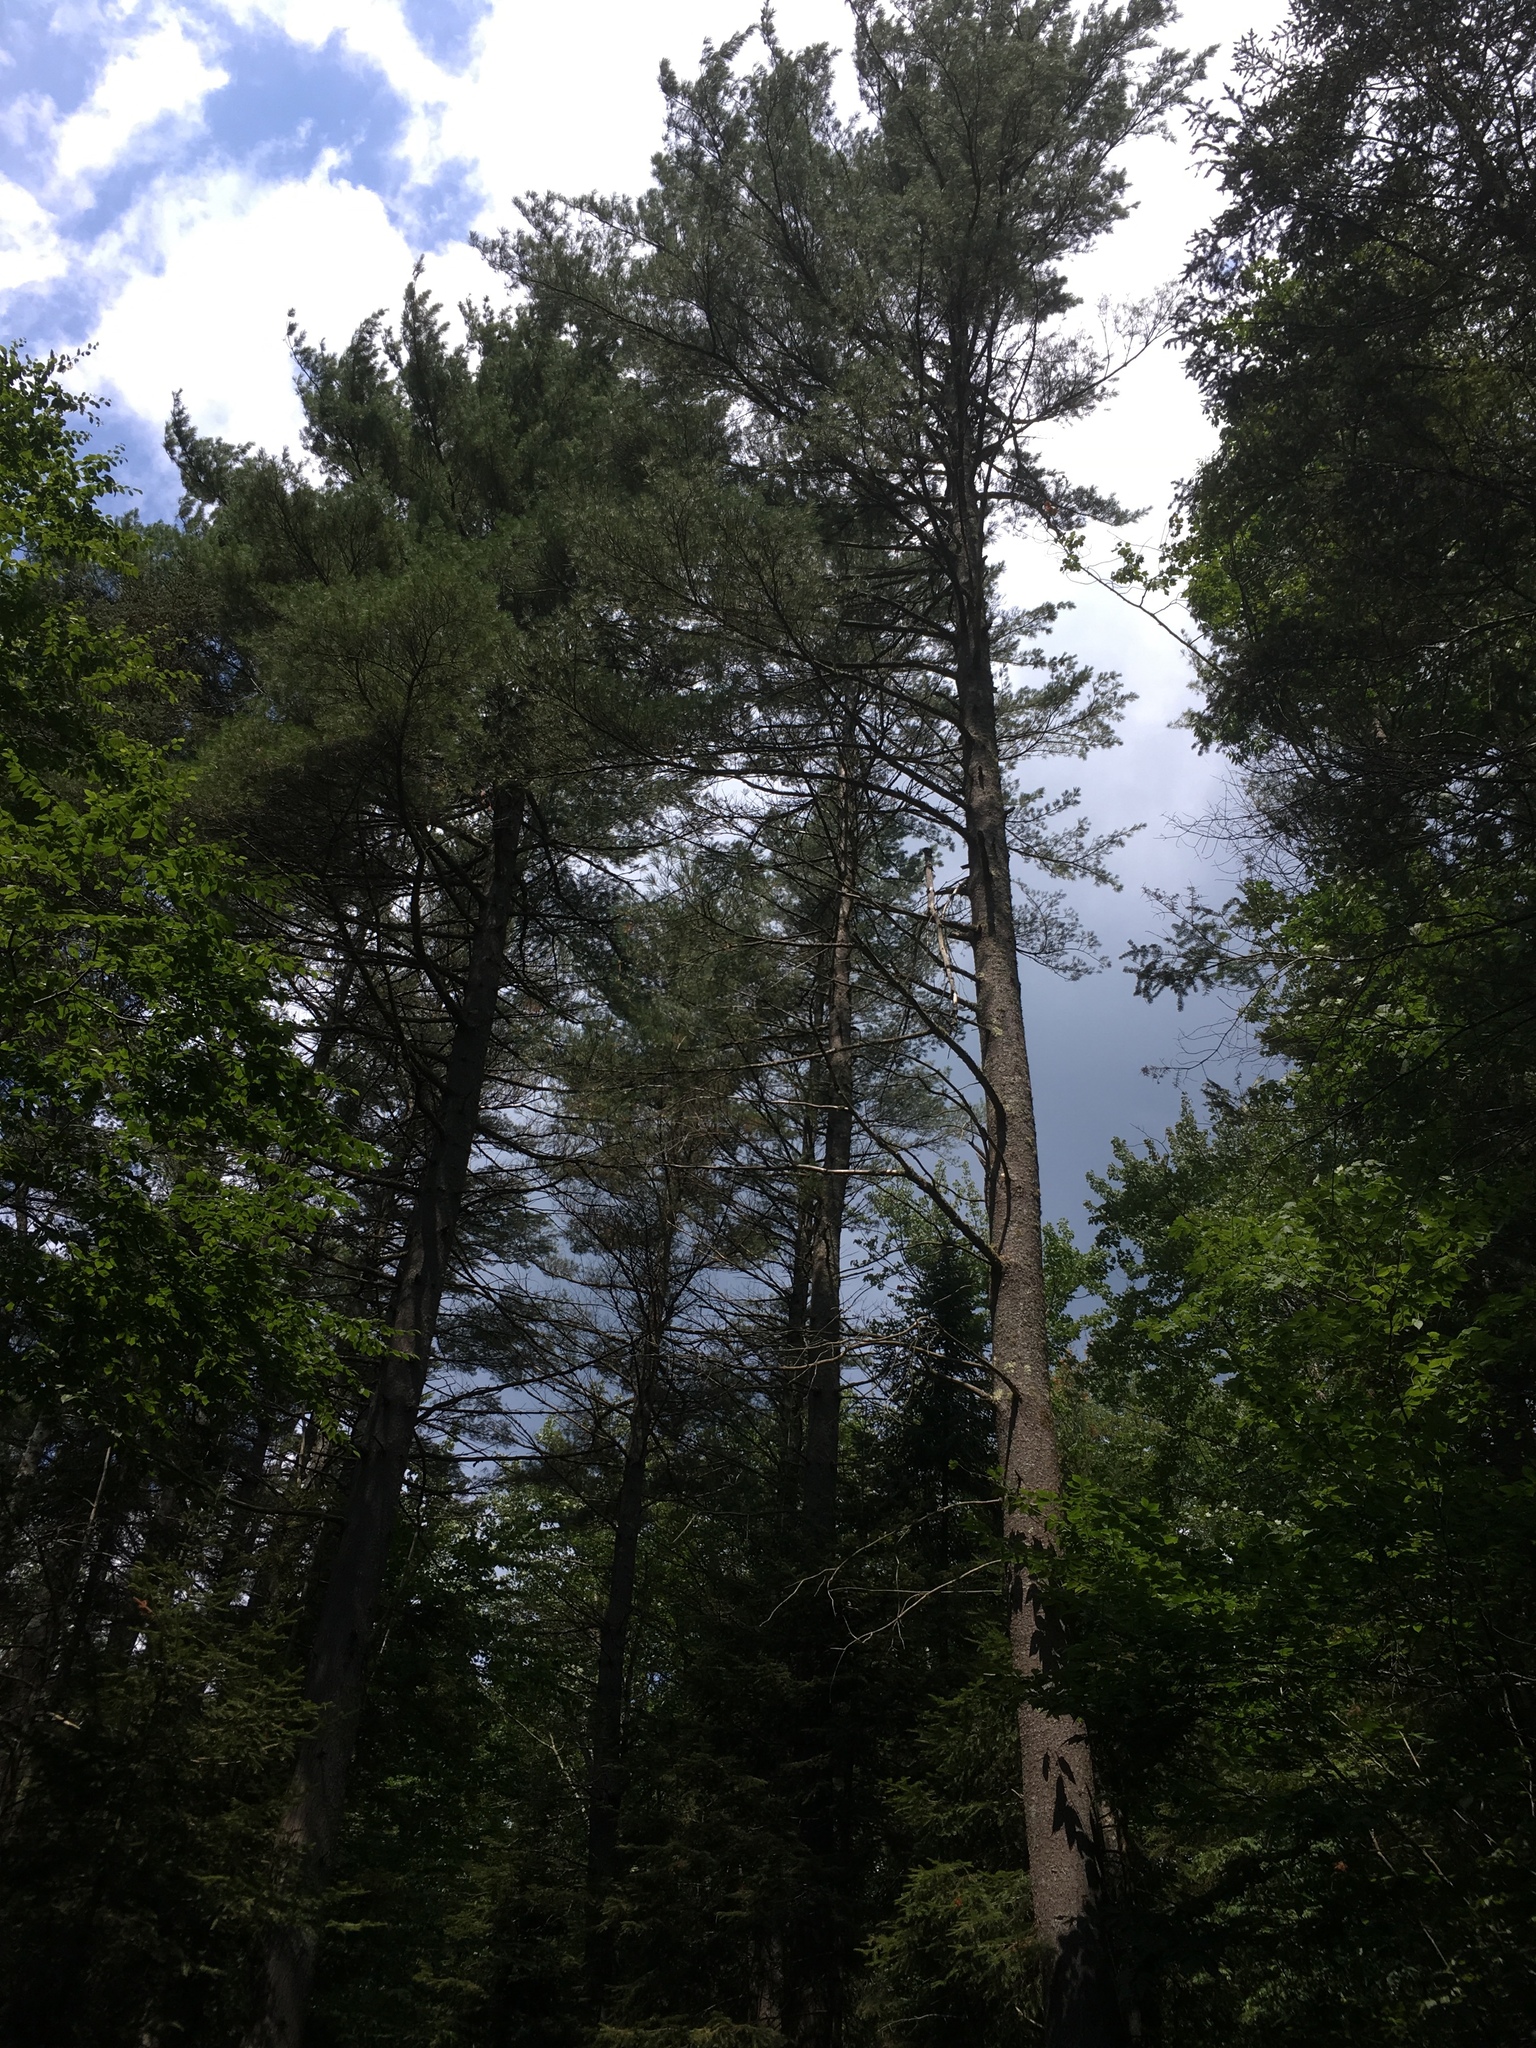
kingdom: Plantae
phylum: Tracheophyta
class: Pinopsida
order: Pinales
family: Pinaceae
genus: Pinus
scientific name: Pinus strobus
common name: Weymouth pine
